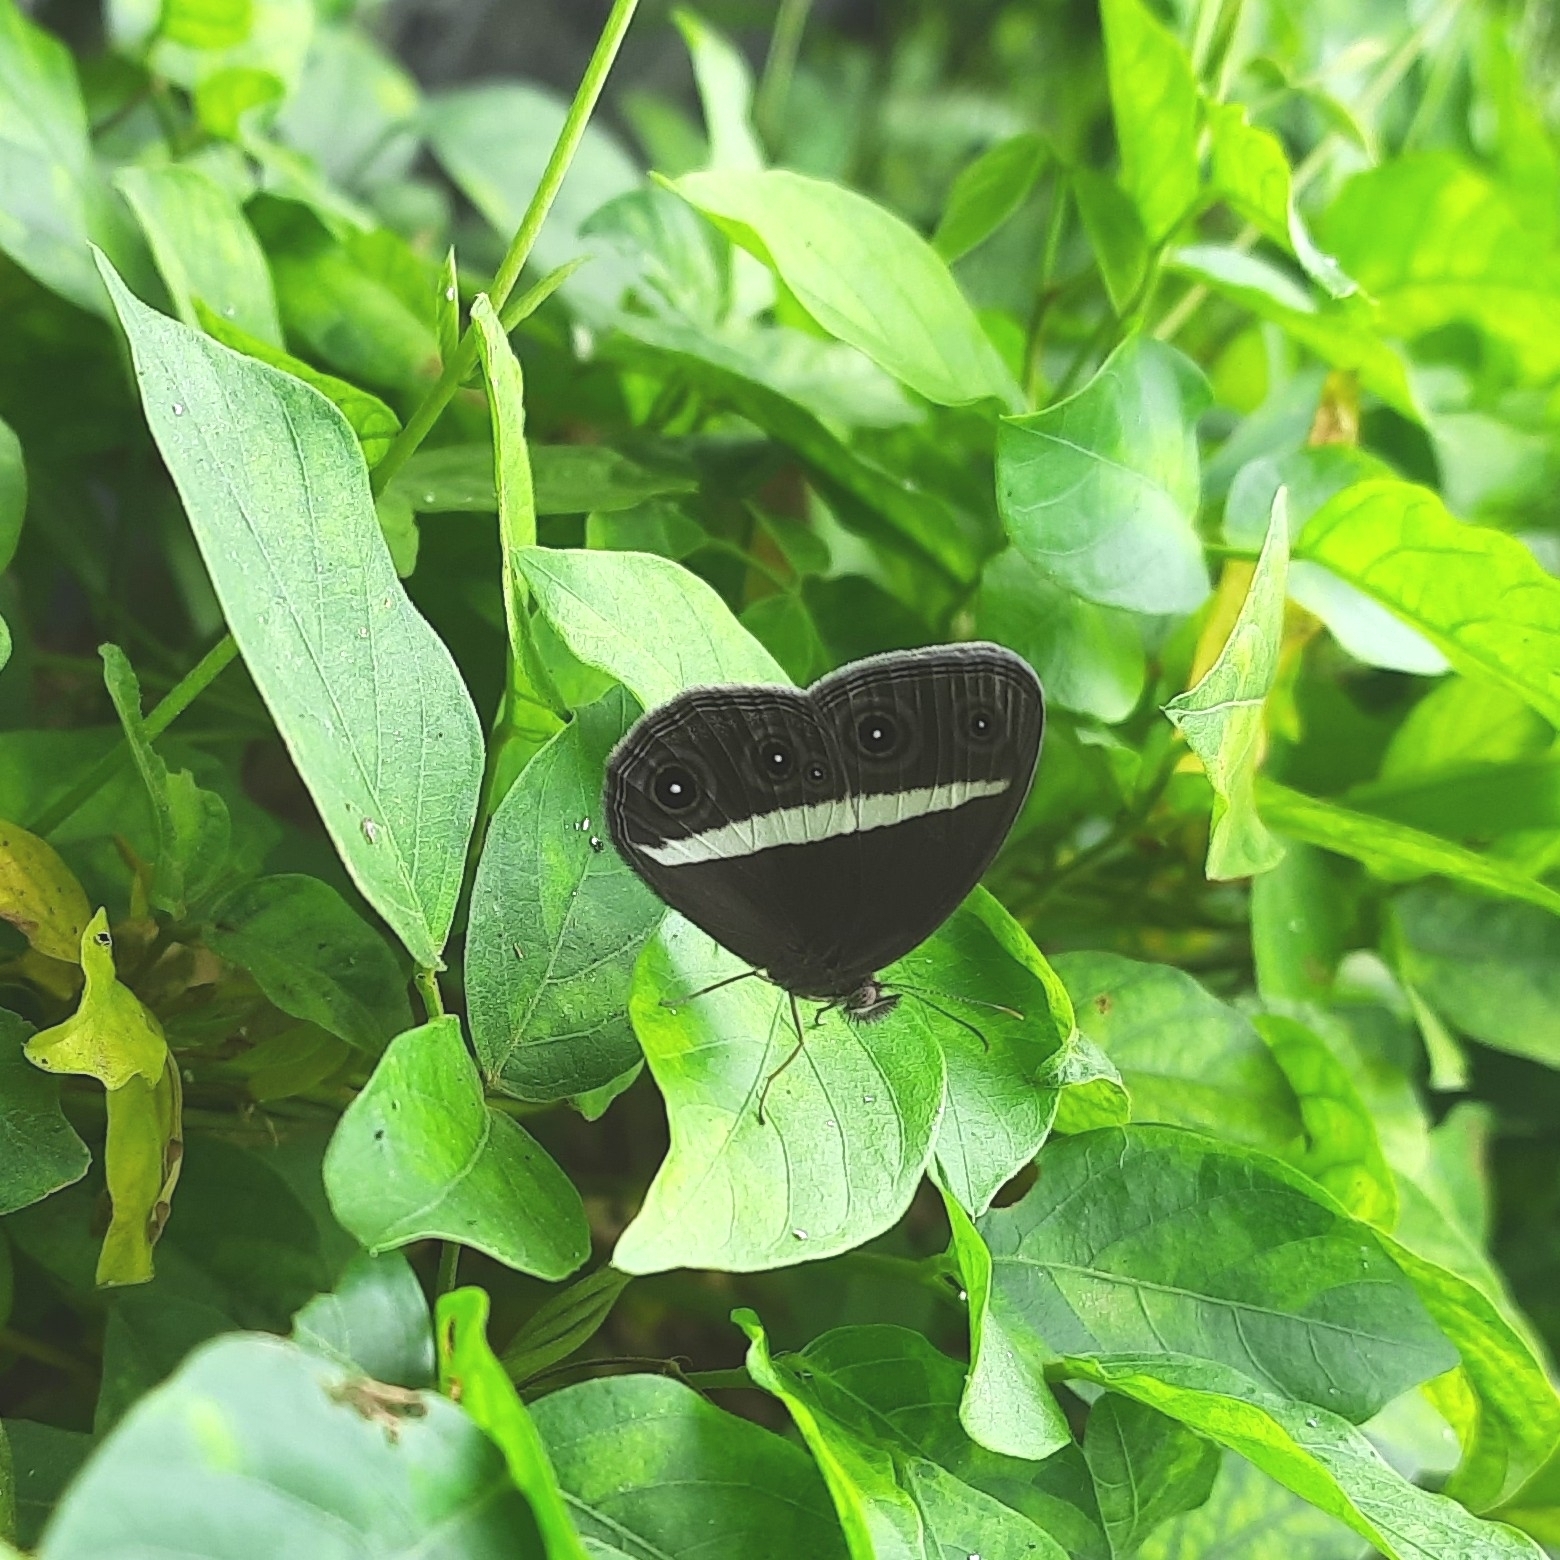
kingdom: Animalia
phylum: Arthropoda
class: Insecta
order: Lepidoptera
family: Nymphalidae
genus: Orsotriaena
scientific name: Orsotriaena medus
